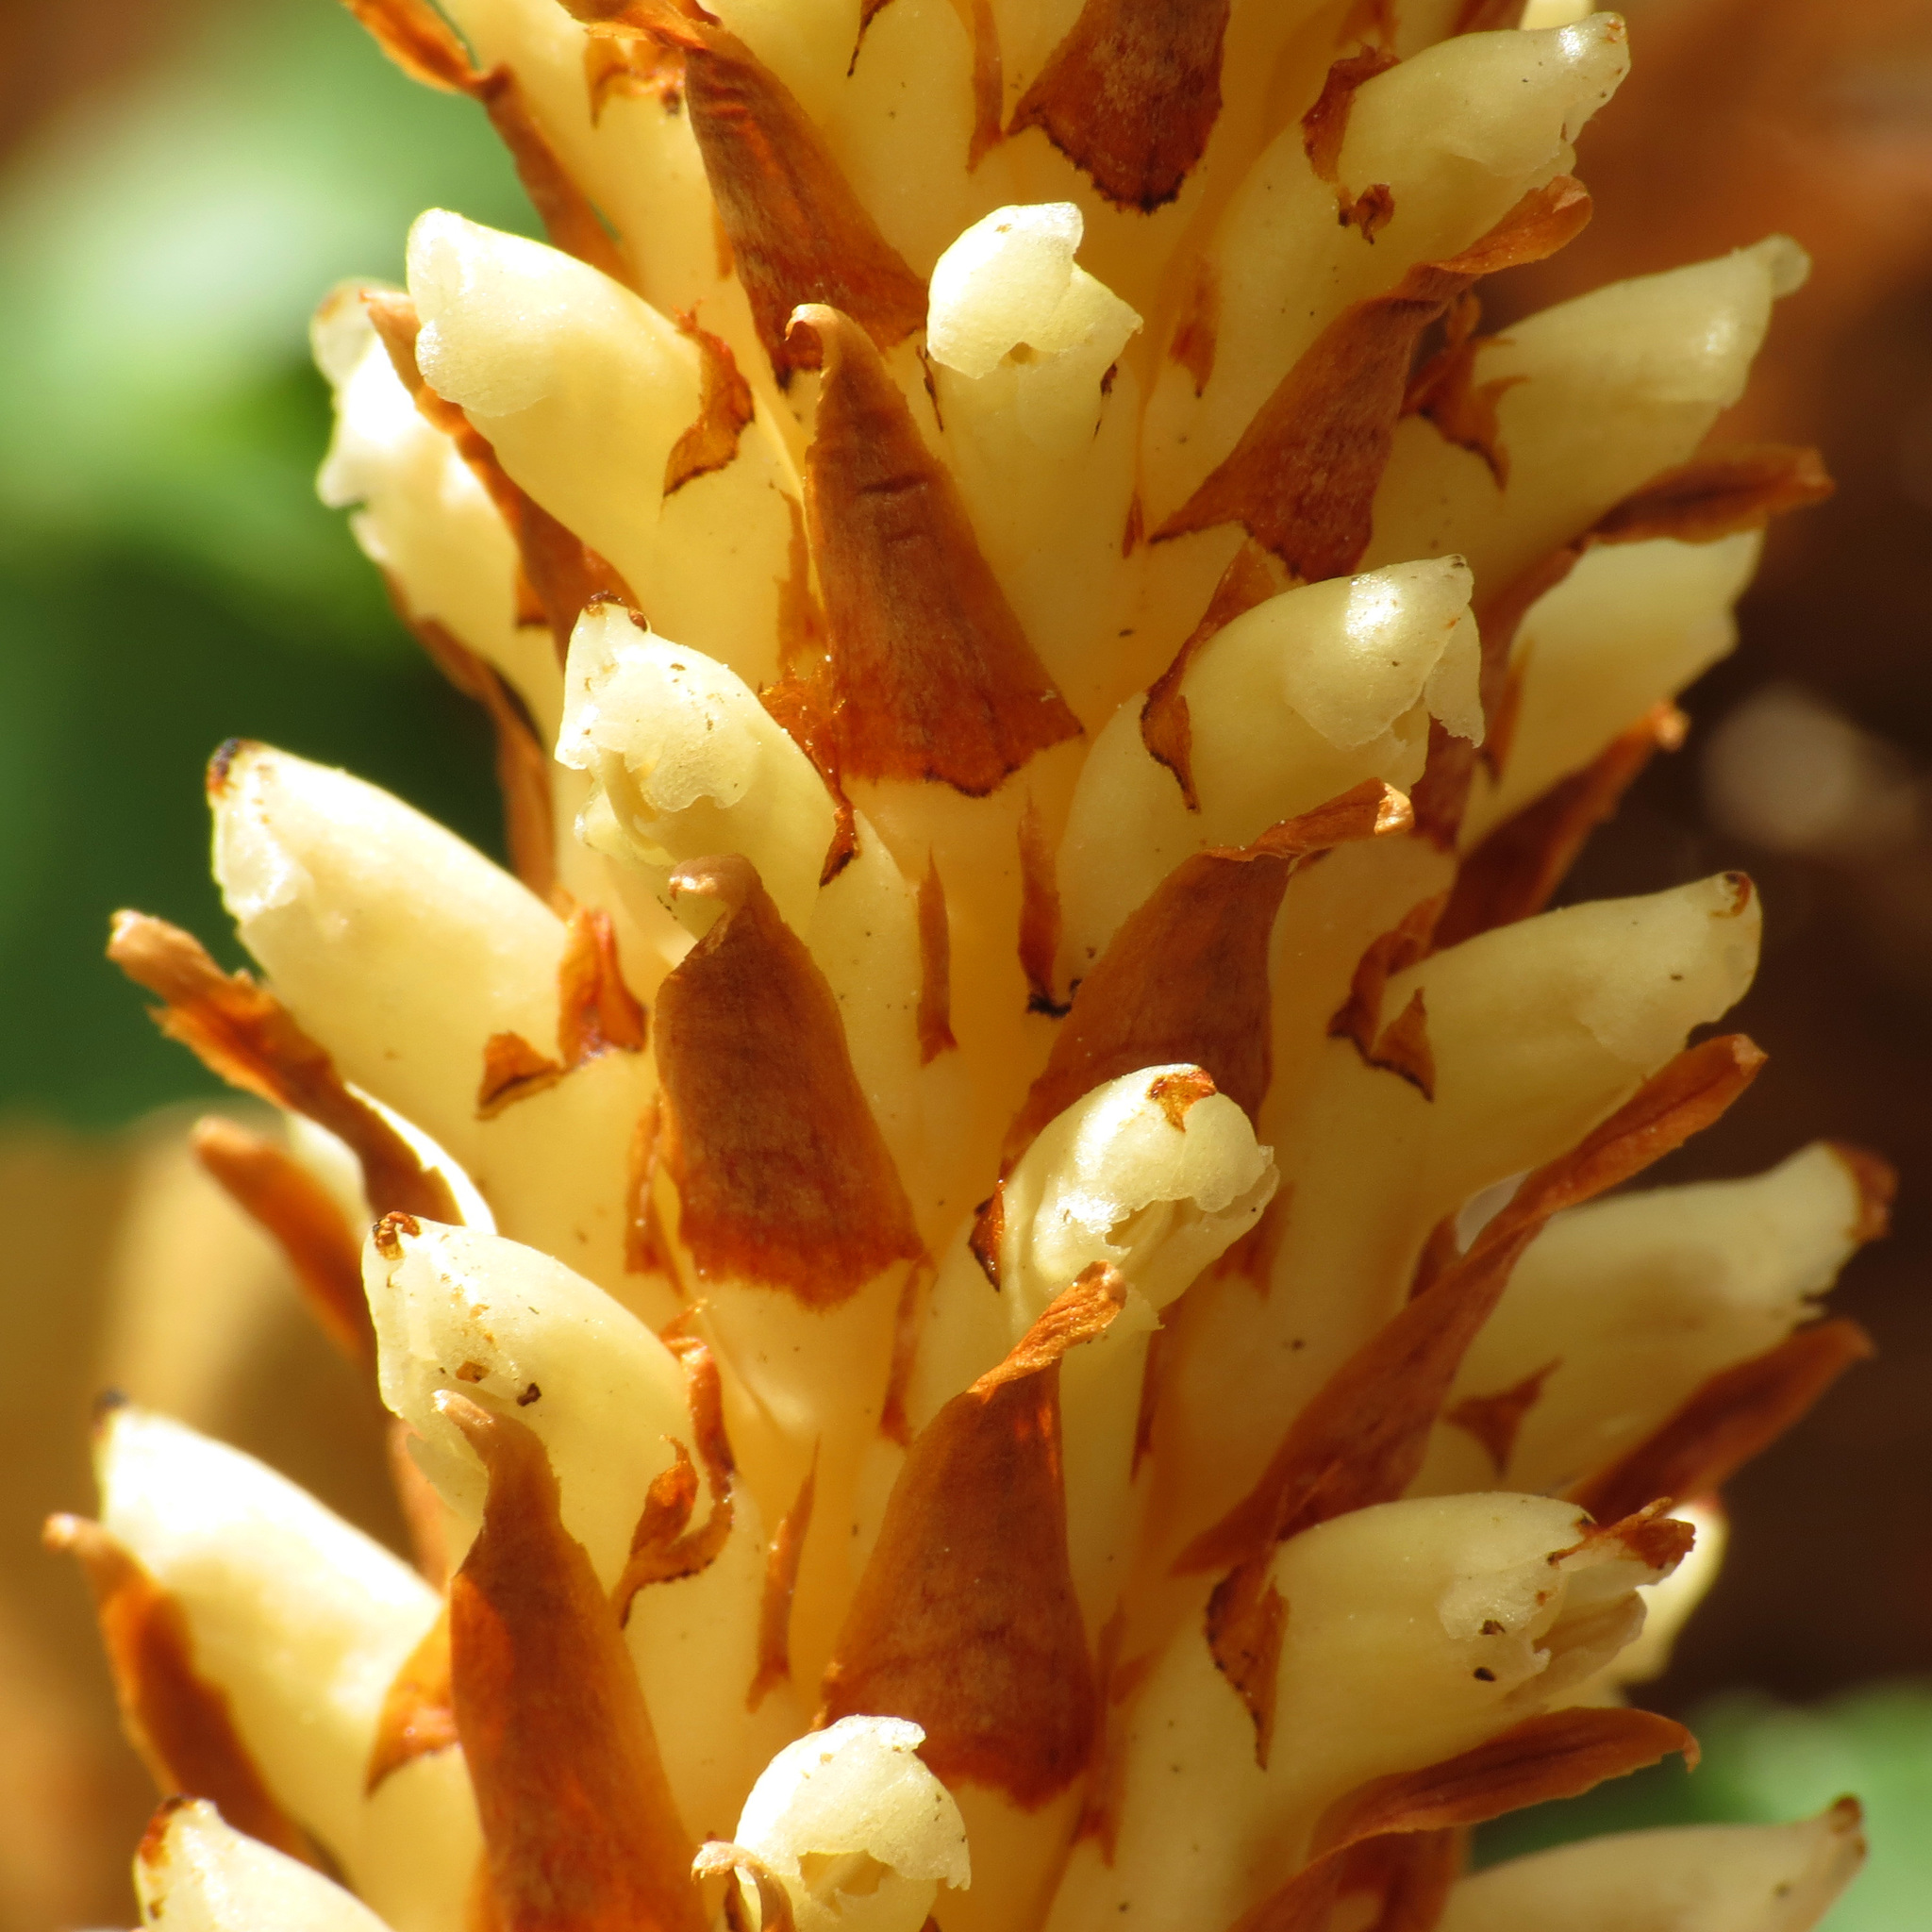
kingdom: Plantae
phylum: Tracheophyta
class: Magnoliopsida
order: Lamiales
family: Orobanchaceae
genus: Conopholis
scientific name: Conopholis americana
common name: American cancer-root
